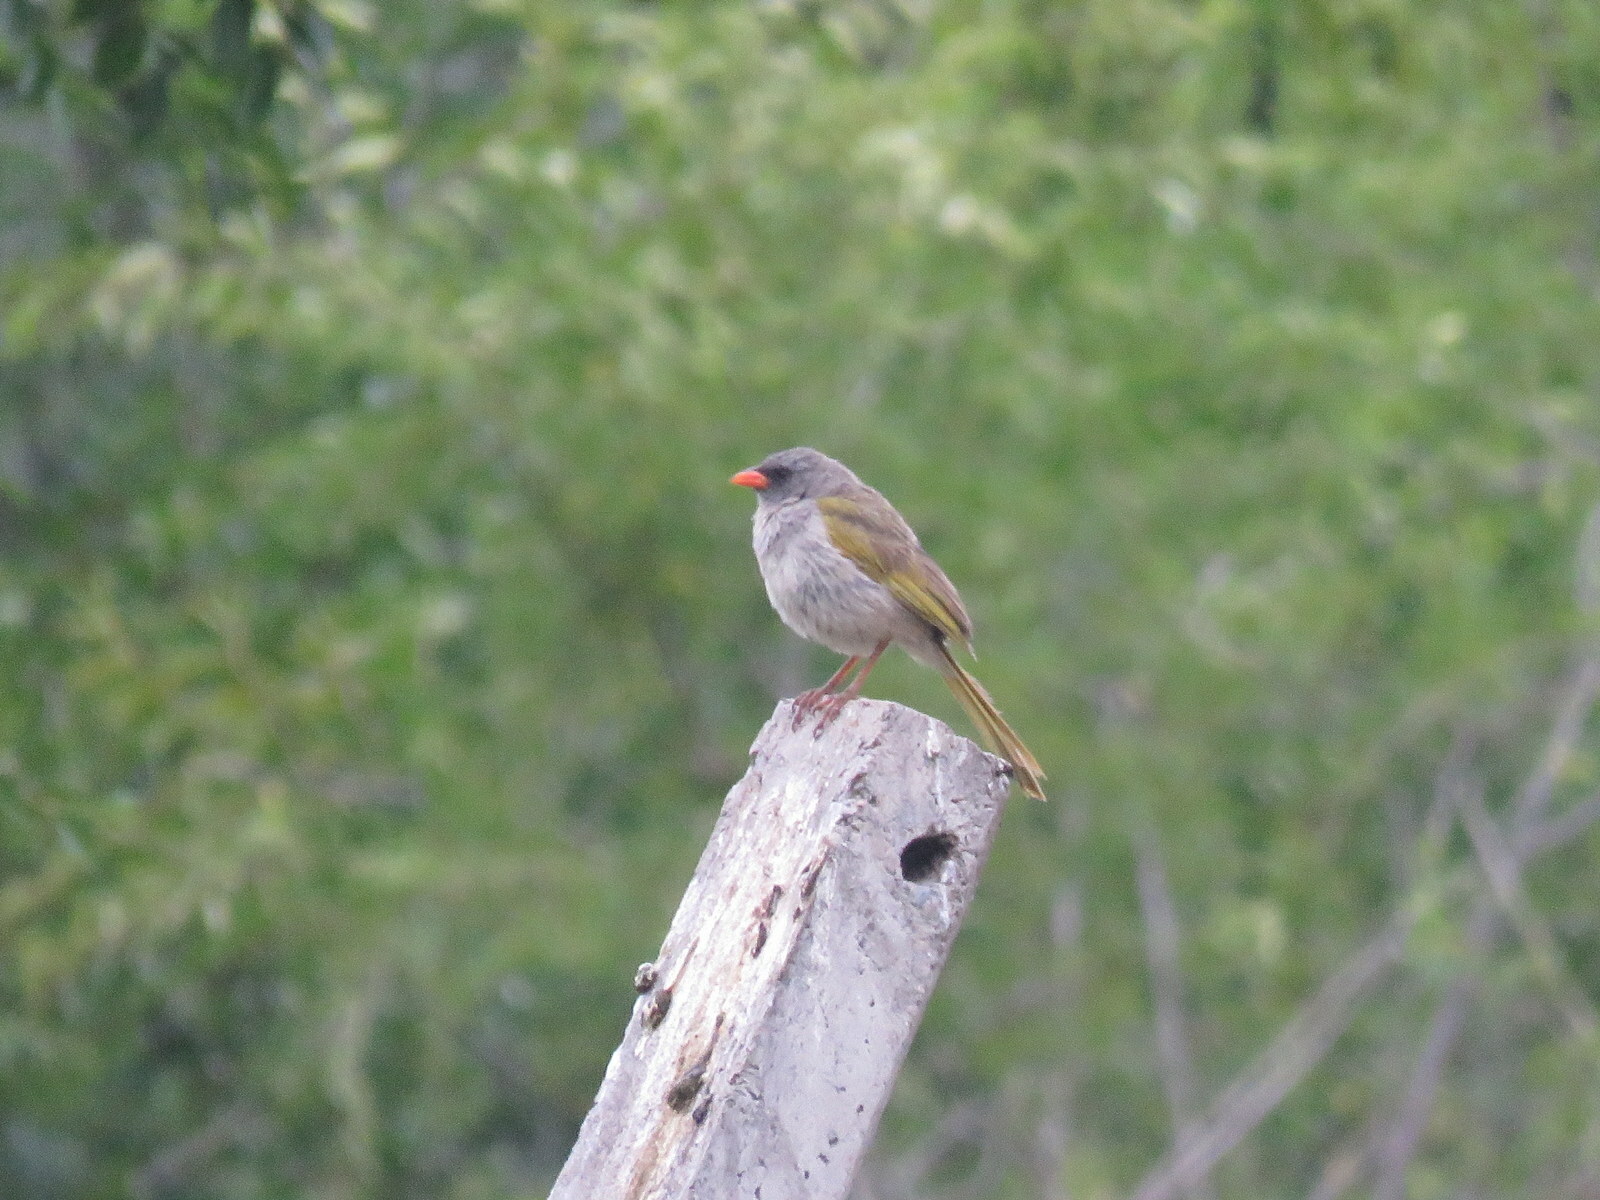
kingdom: Animalia
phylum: Chordata
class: Aves
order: Passeriformes
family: Thraupidae
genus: Embernagra
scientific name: Embernagra platensis
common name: Pampa finch
